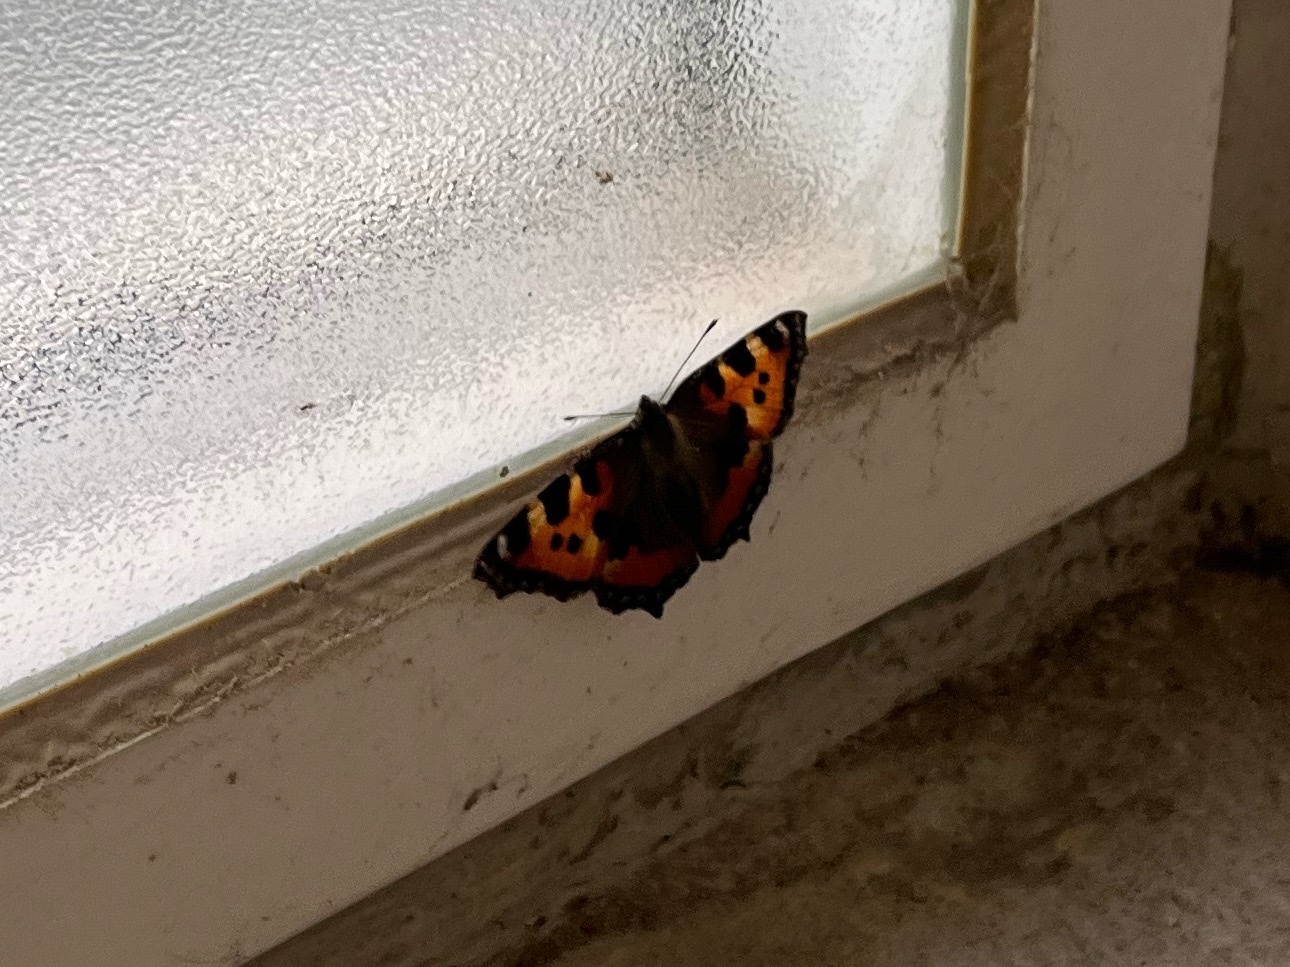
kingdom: Animalia
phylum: Arthropoda
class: Insecta
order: Lepidoptera
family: Nymphalidae
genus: Aglais
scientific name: Aglais urticae
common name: Small tortoiseshell
